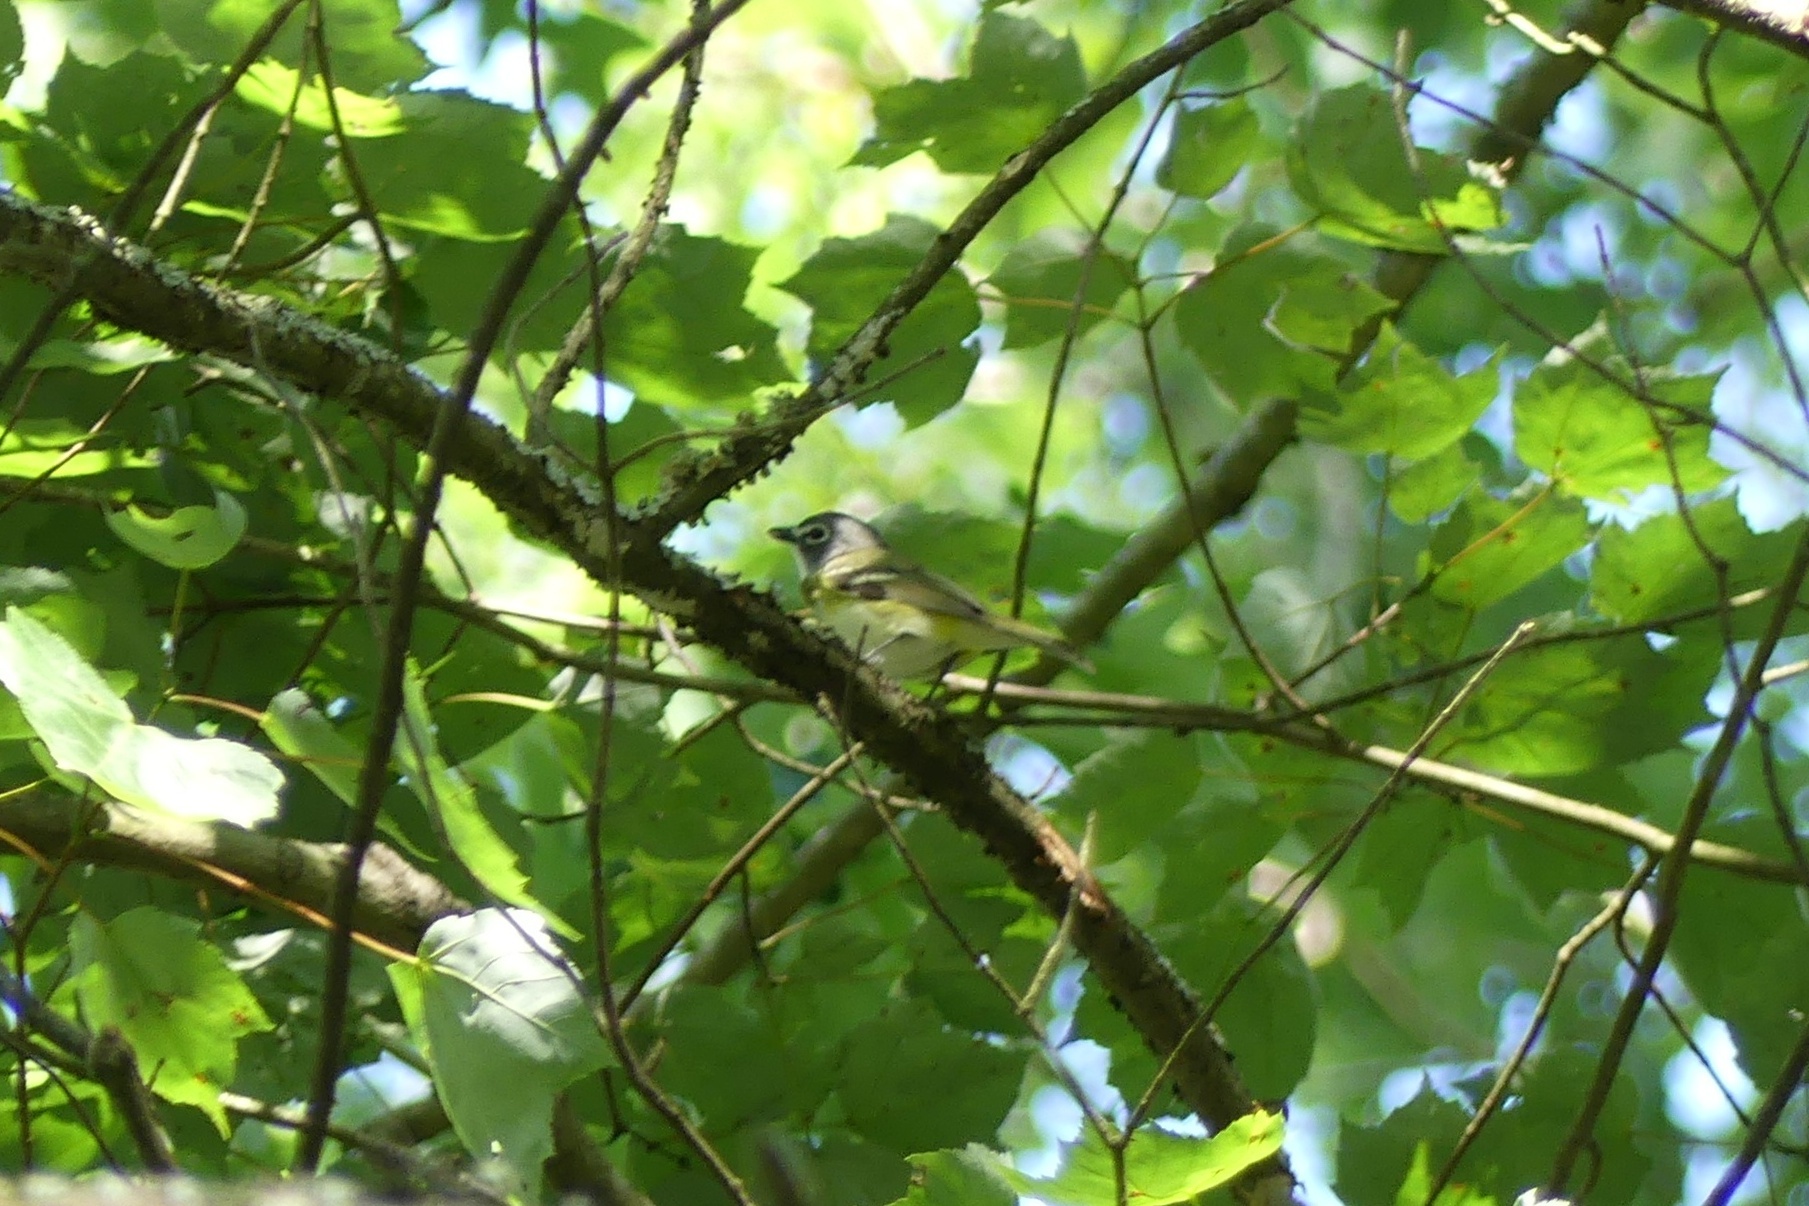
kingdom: Animalia
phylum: Chordata
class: Aves
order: Passeriformes
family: Vireonidae
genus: Vireo
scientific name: Vireo solitarius
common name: Blue-headed vireo
